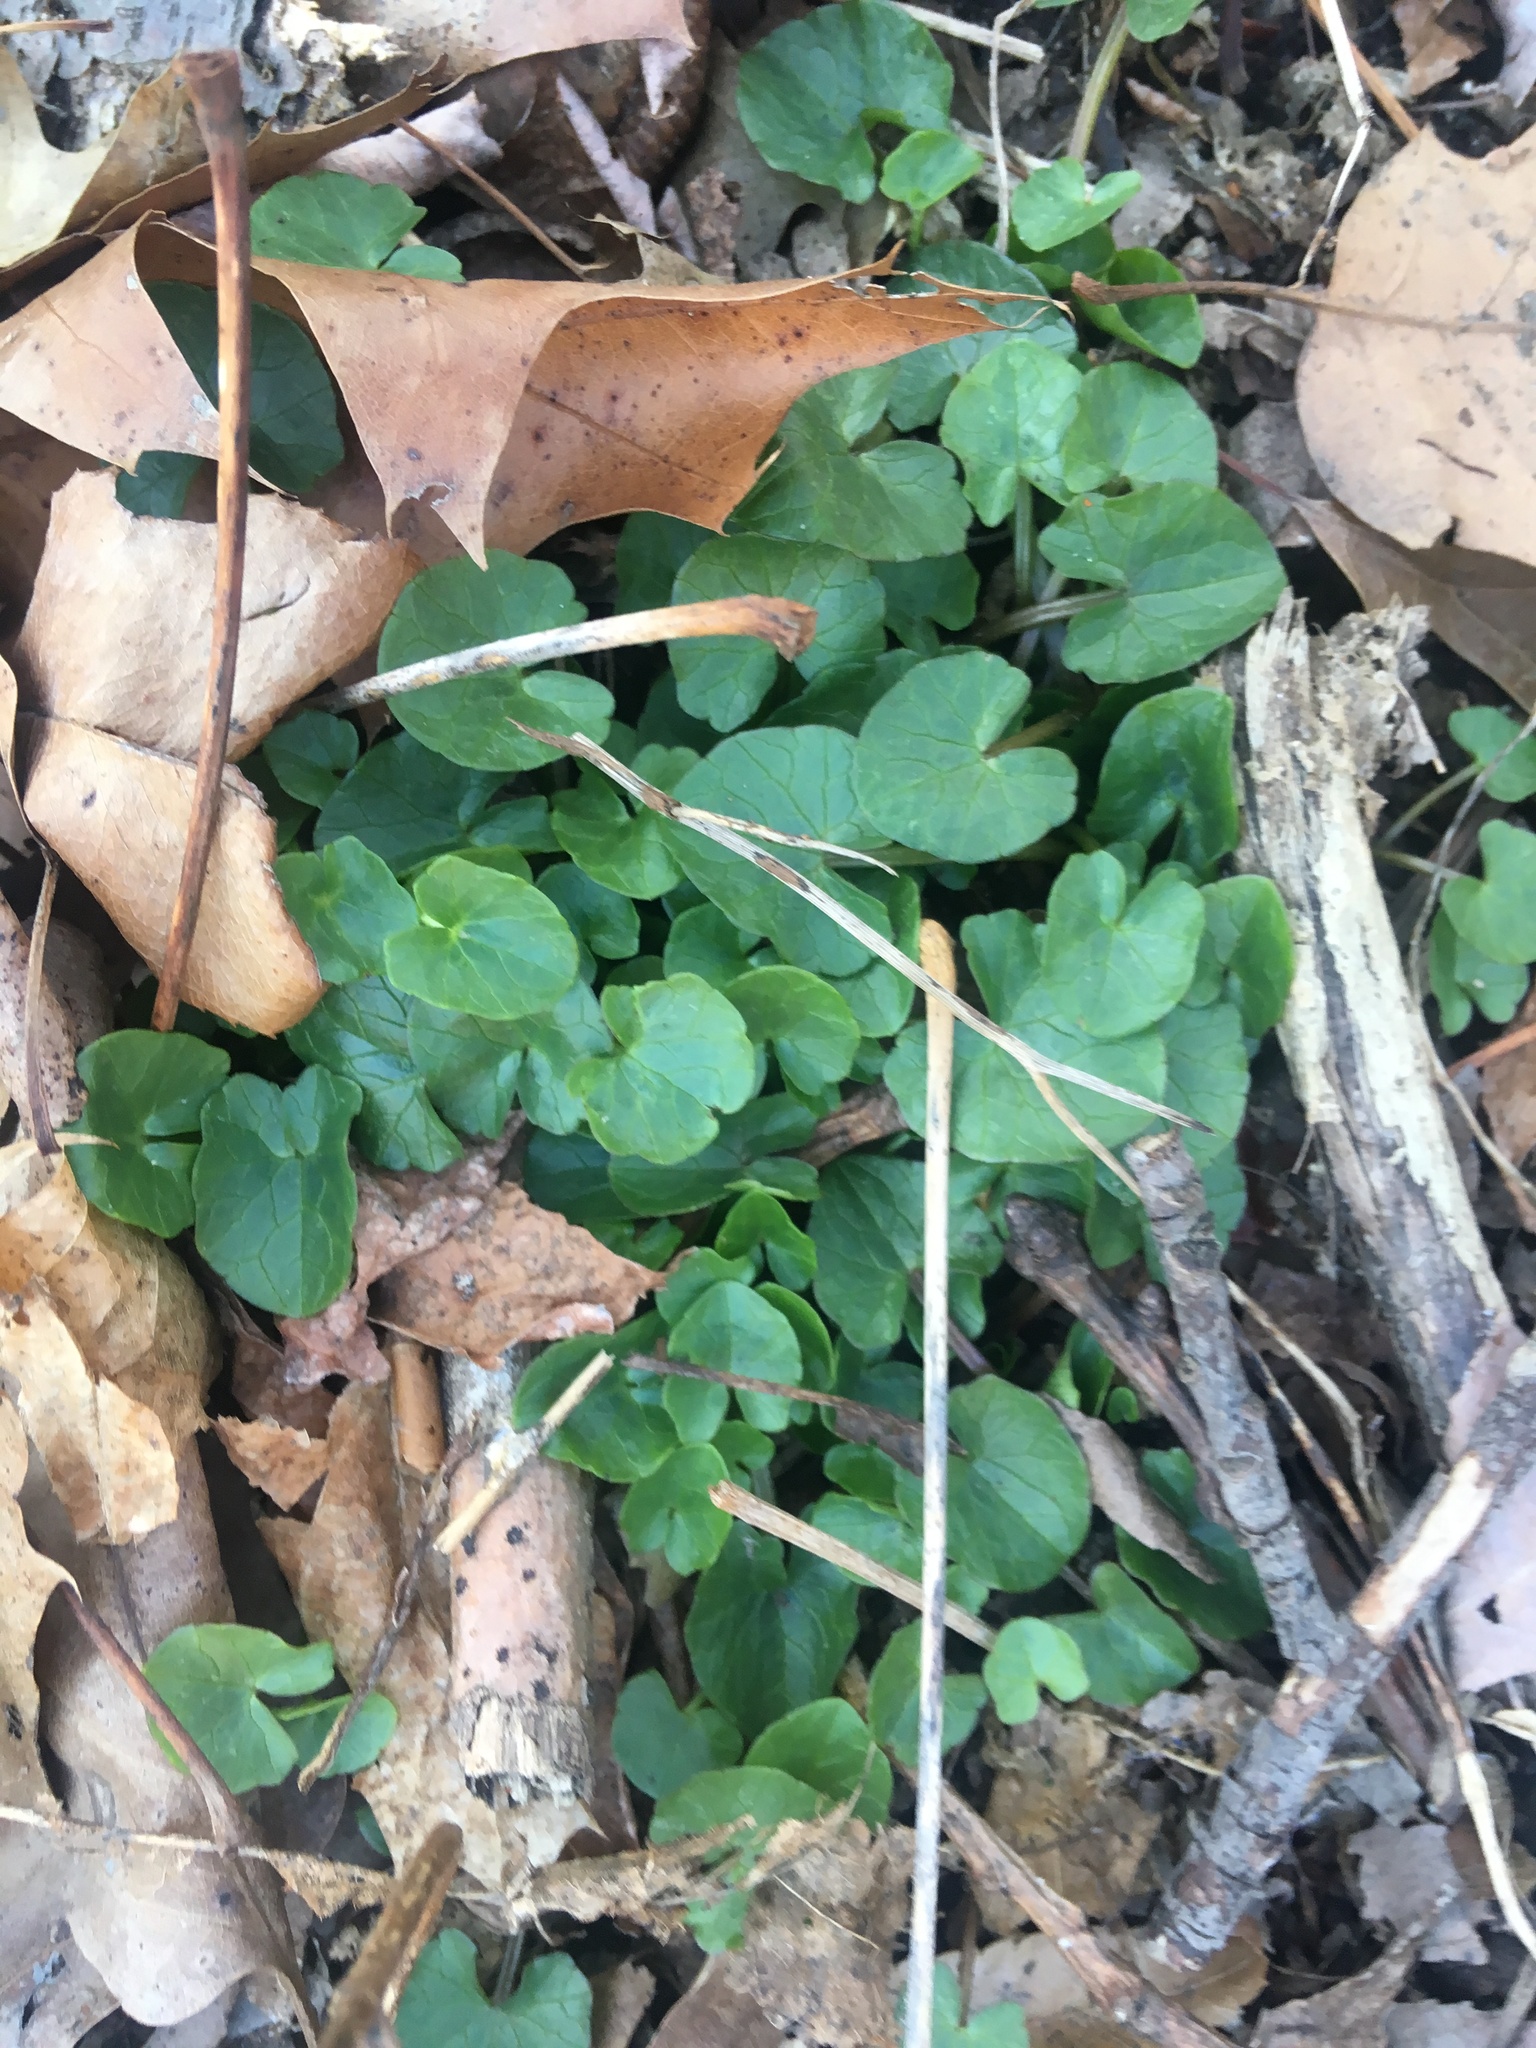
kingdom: Plantae
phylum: Tracheophyta
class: Magnoliopsida
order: Ranunculales
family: Ranunculaceae
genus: Ficaria
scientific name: Ficaria verna
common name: Lesser celandine
